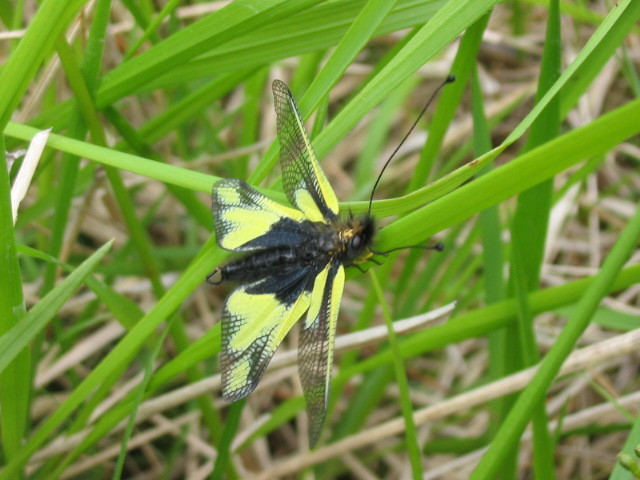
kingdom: Animalia
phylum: Arthropoda
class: Insecta
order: Neuroptera
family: Ascalaphidae
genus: Libelloides
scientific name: Libelloides coccajus
